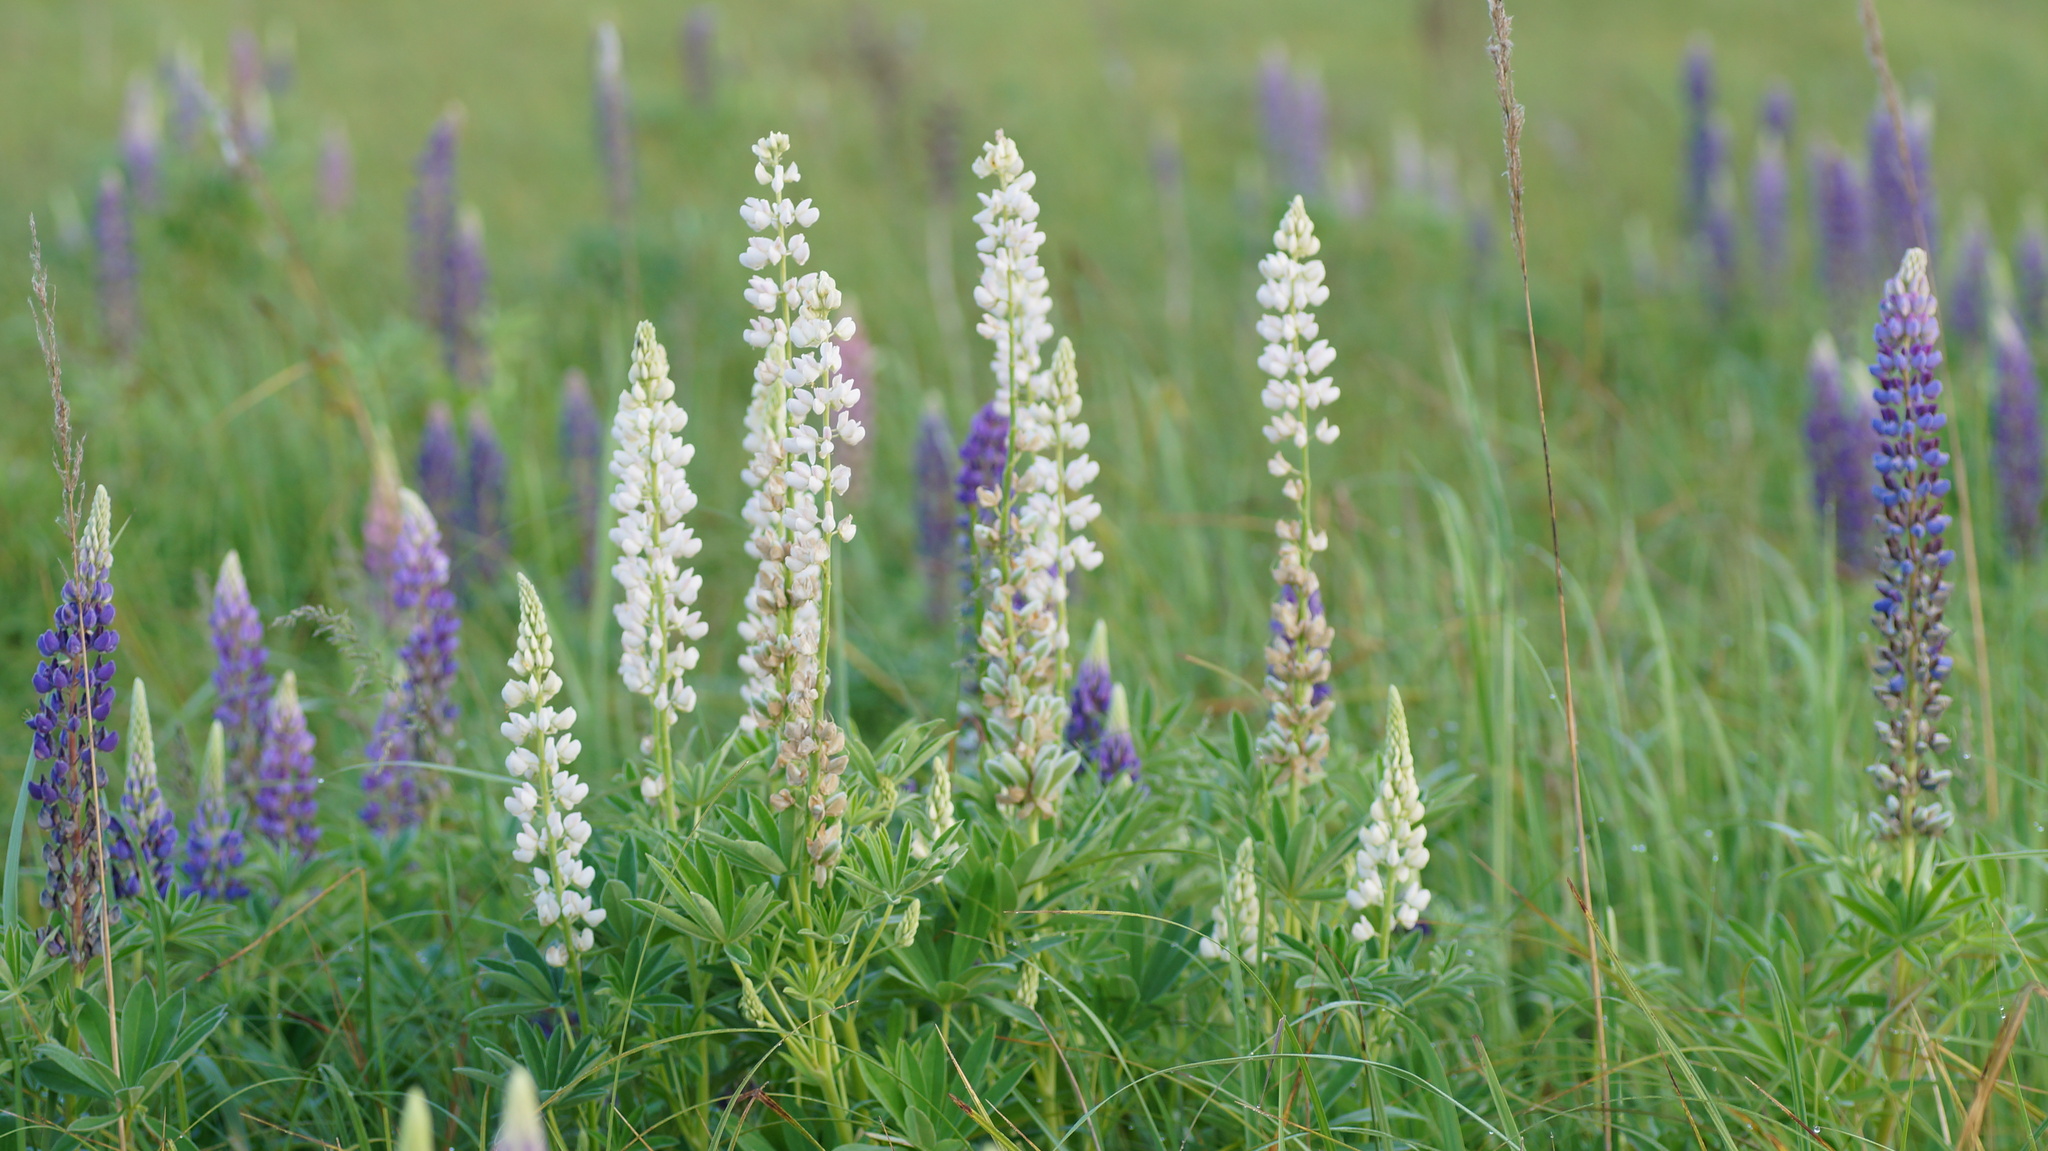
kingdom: Plantae
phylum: Tracheophyta
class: Magnoliopsida
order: Fabales
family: Fabaceae
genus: Lupinus
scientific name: Lupinus polyphyllus
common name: Garden lupin
